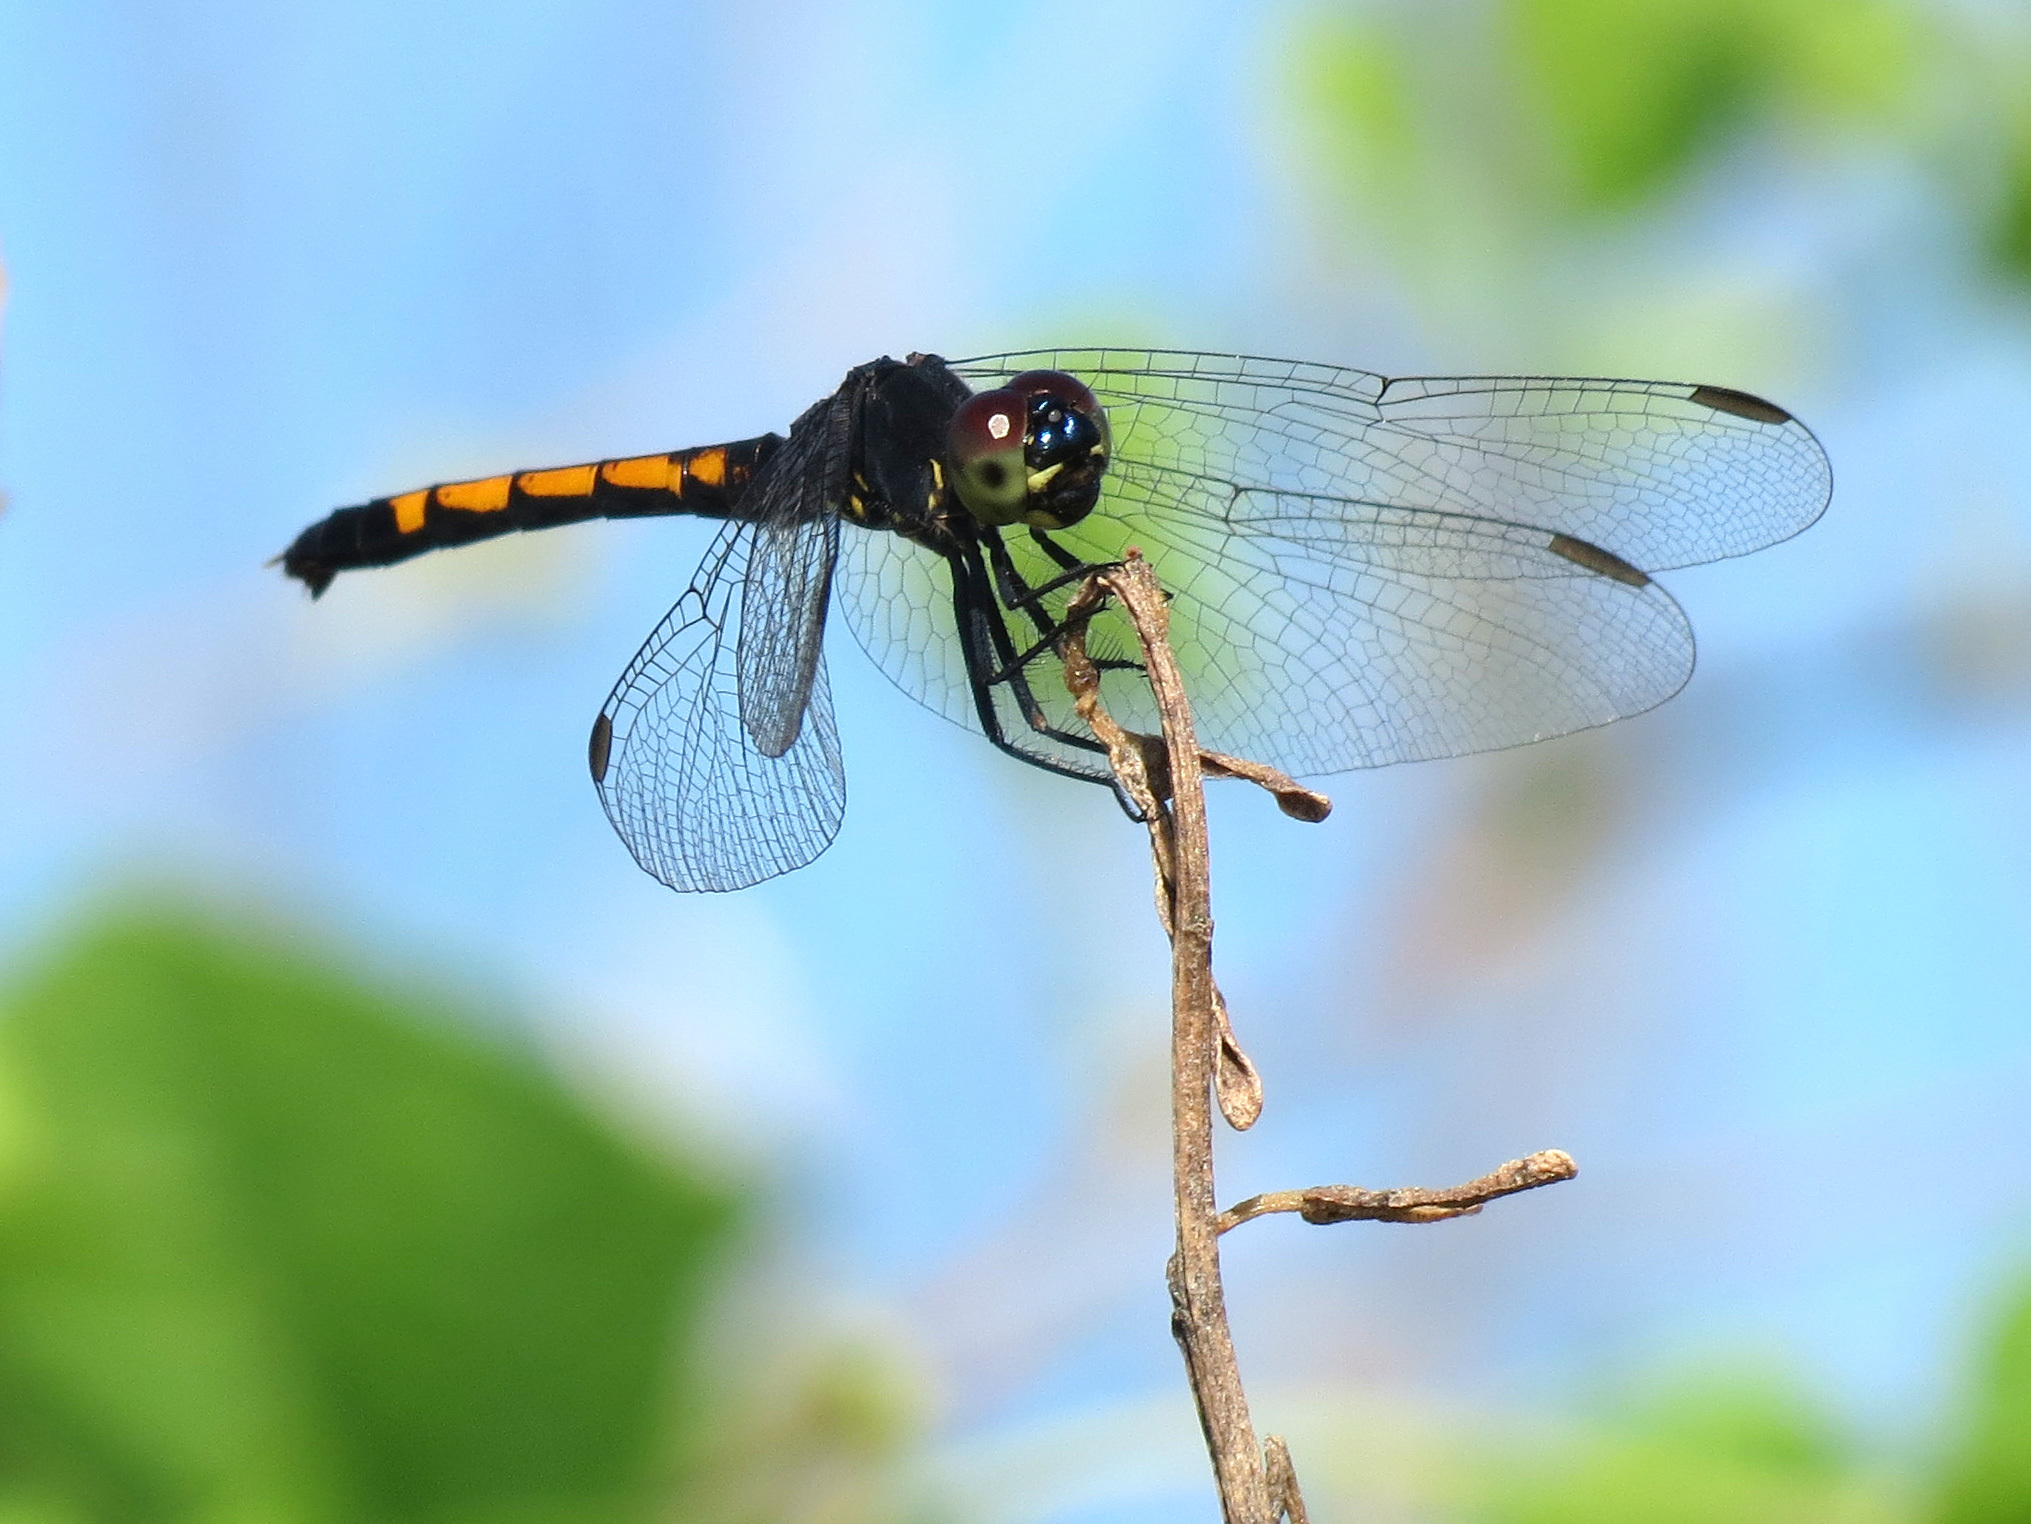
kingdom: Animalia
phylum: Arthropoda
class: Insecta
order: Odonata
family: Libellulidae
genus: Erythrodiplax
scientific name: Erythrodiplax berenice
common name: Seaside dragonlet
